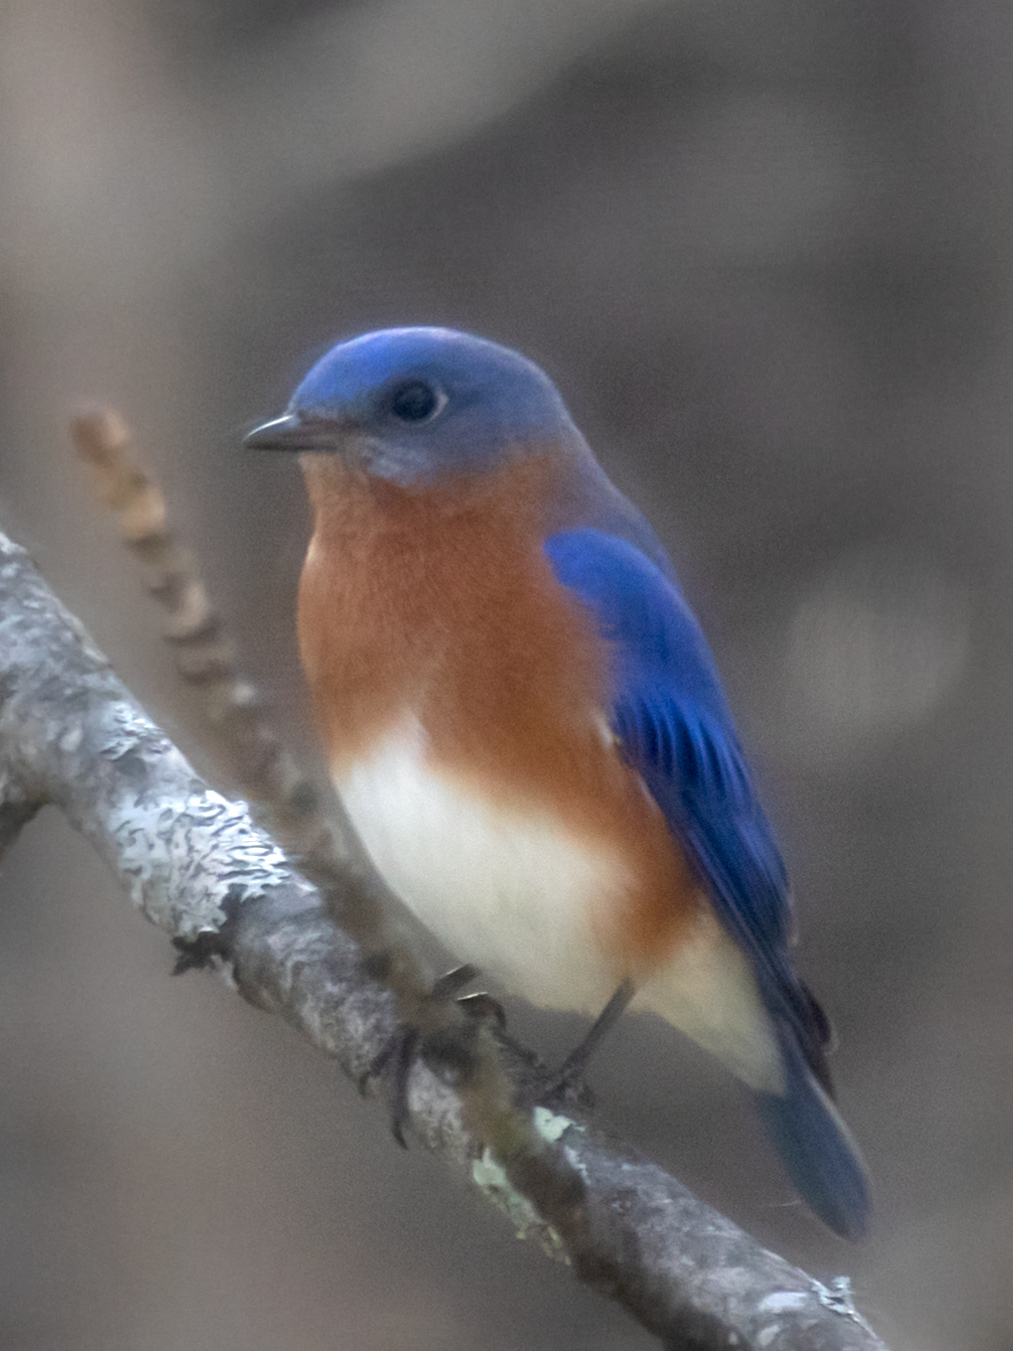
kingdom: Animalia
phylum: Chordata
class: Aves
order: Passeriformes
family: Turdidae
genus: Sialia
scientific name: Sialia sialis
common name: Eastern bluebird
